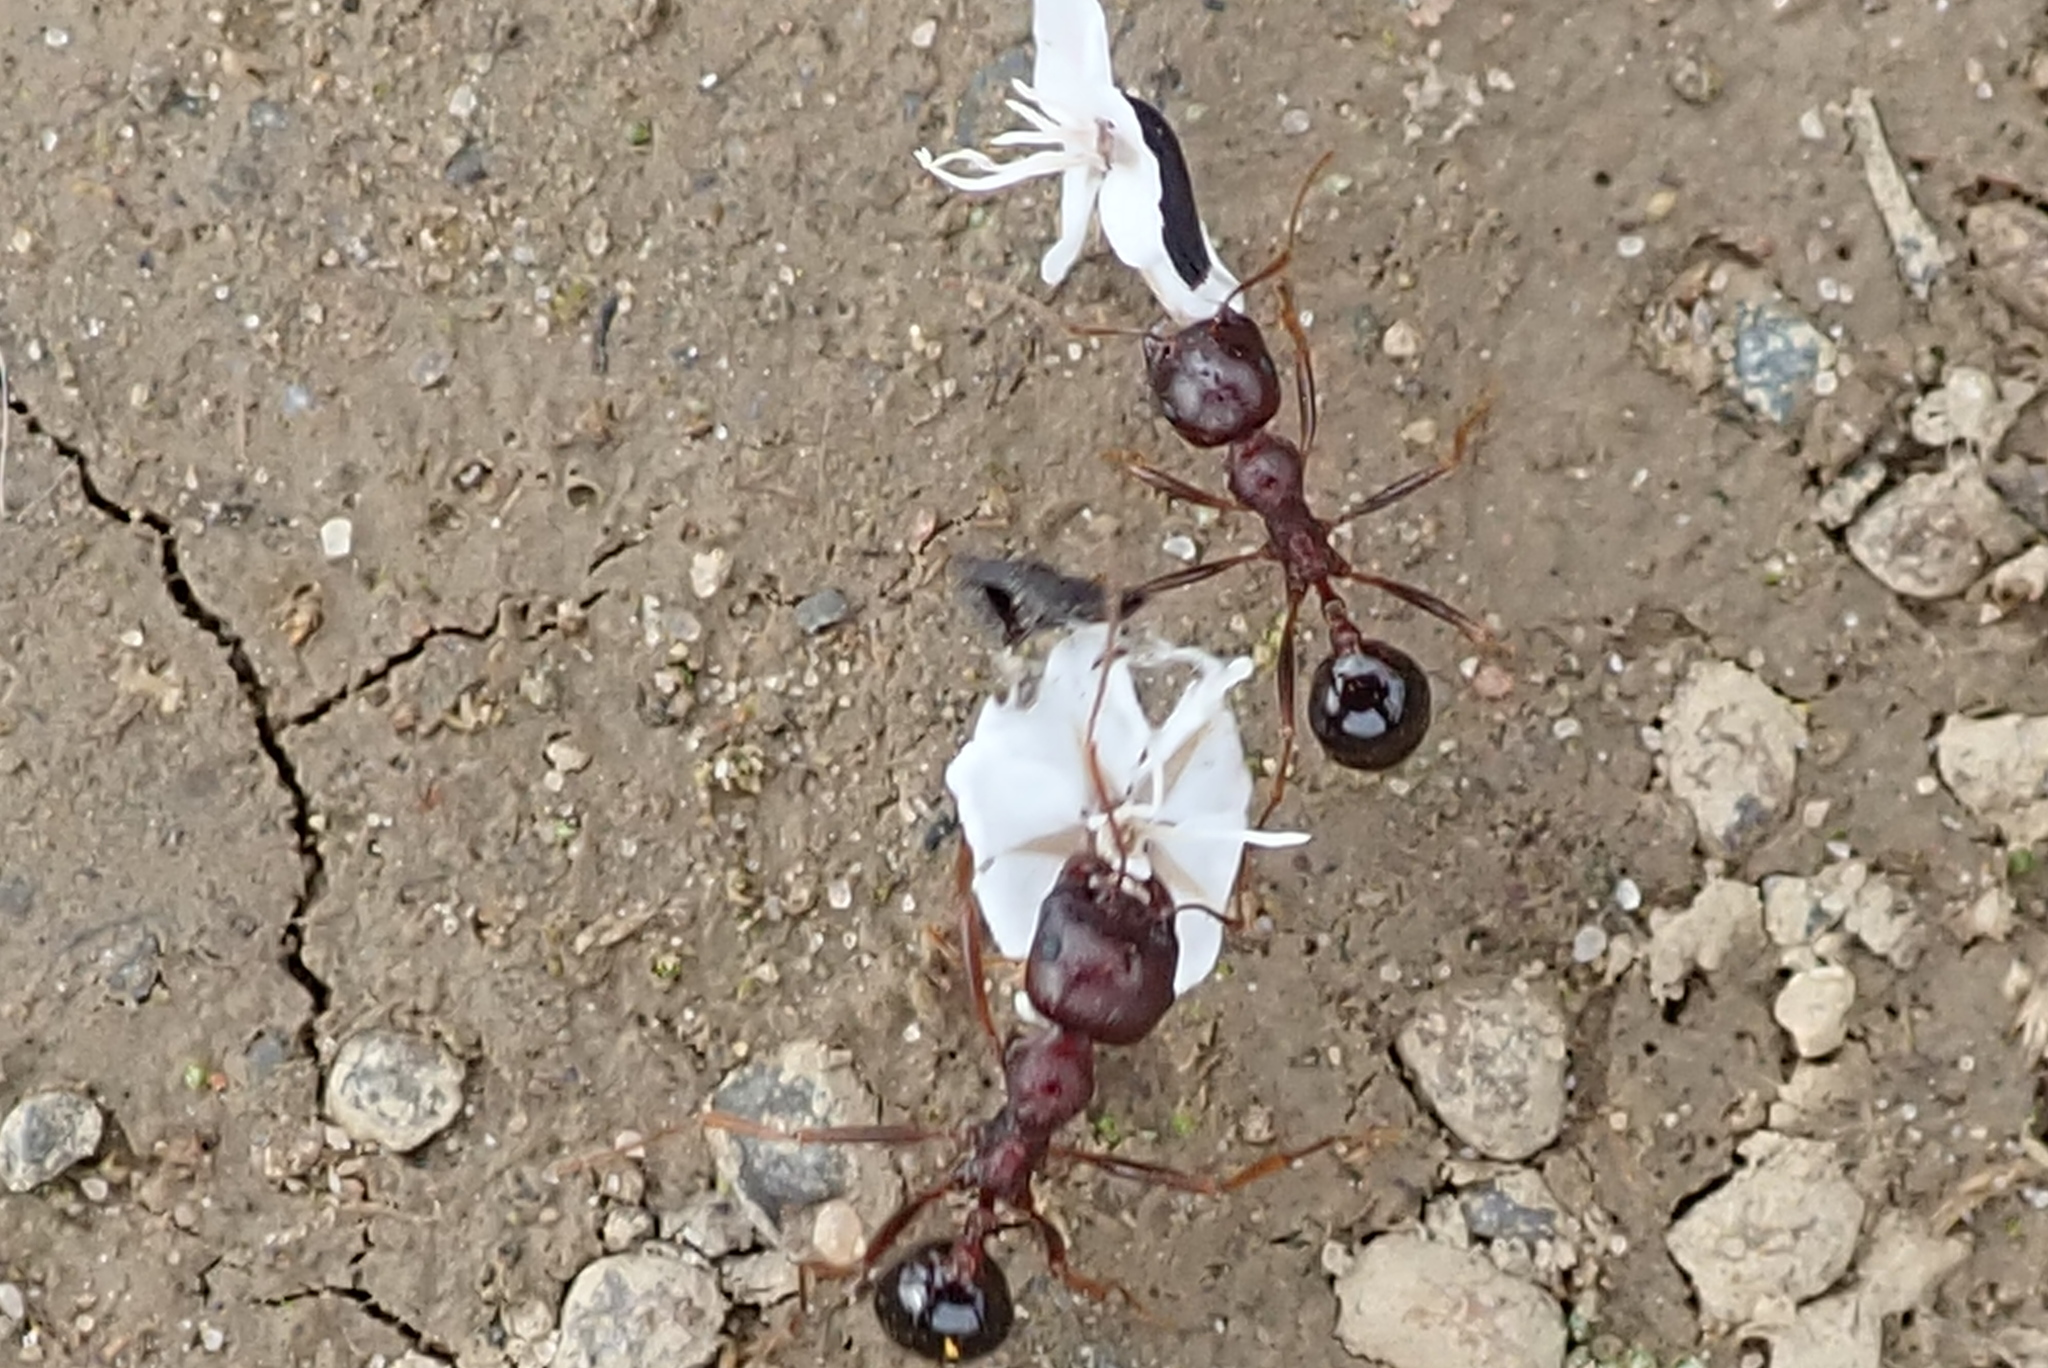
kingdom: Animalia
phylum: Arthropoda
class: Insecta
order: Hymenoptera
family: Formicidae
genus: Messor
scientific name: Messor striatifrons
